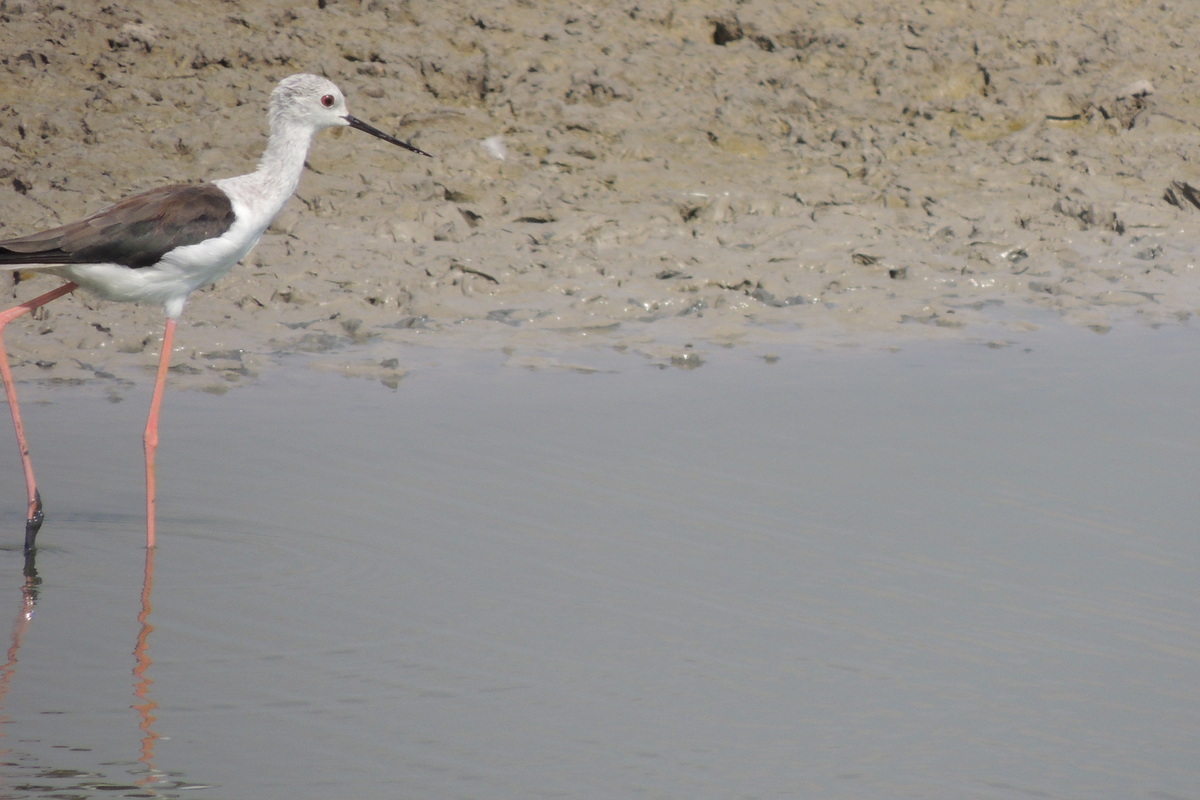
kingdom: Animalia
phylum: Chordata
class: Aves
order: Charadriiformes
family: Recurvirostridae
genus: Himantopus
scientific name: Himantopus himantopus
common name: Black-winged stilt
